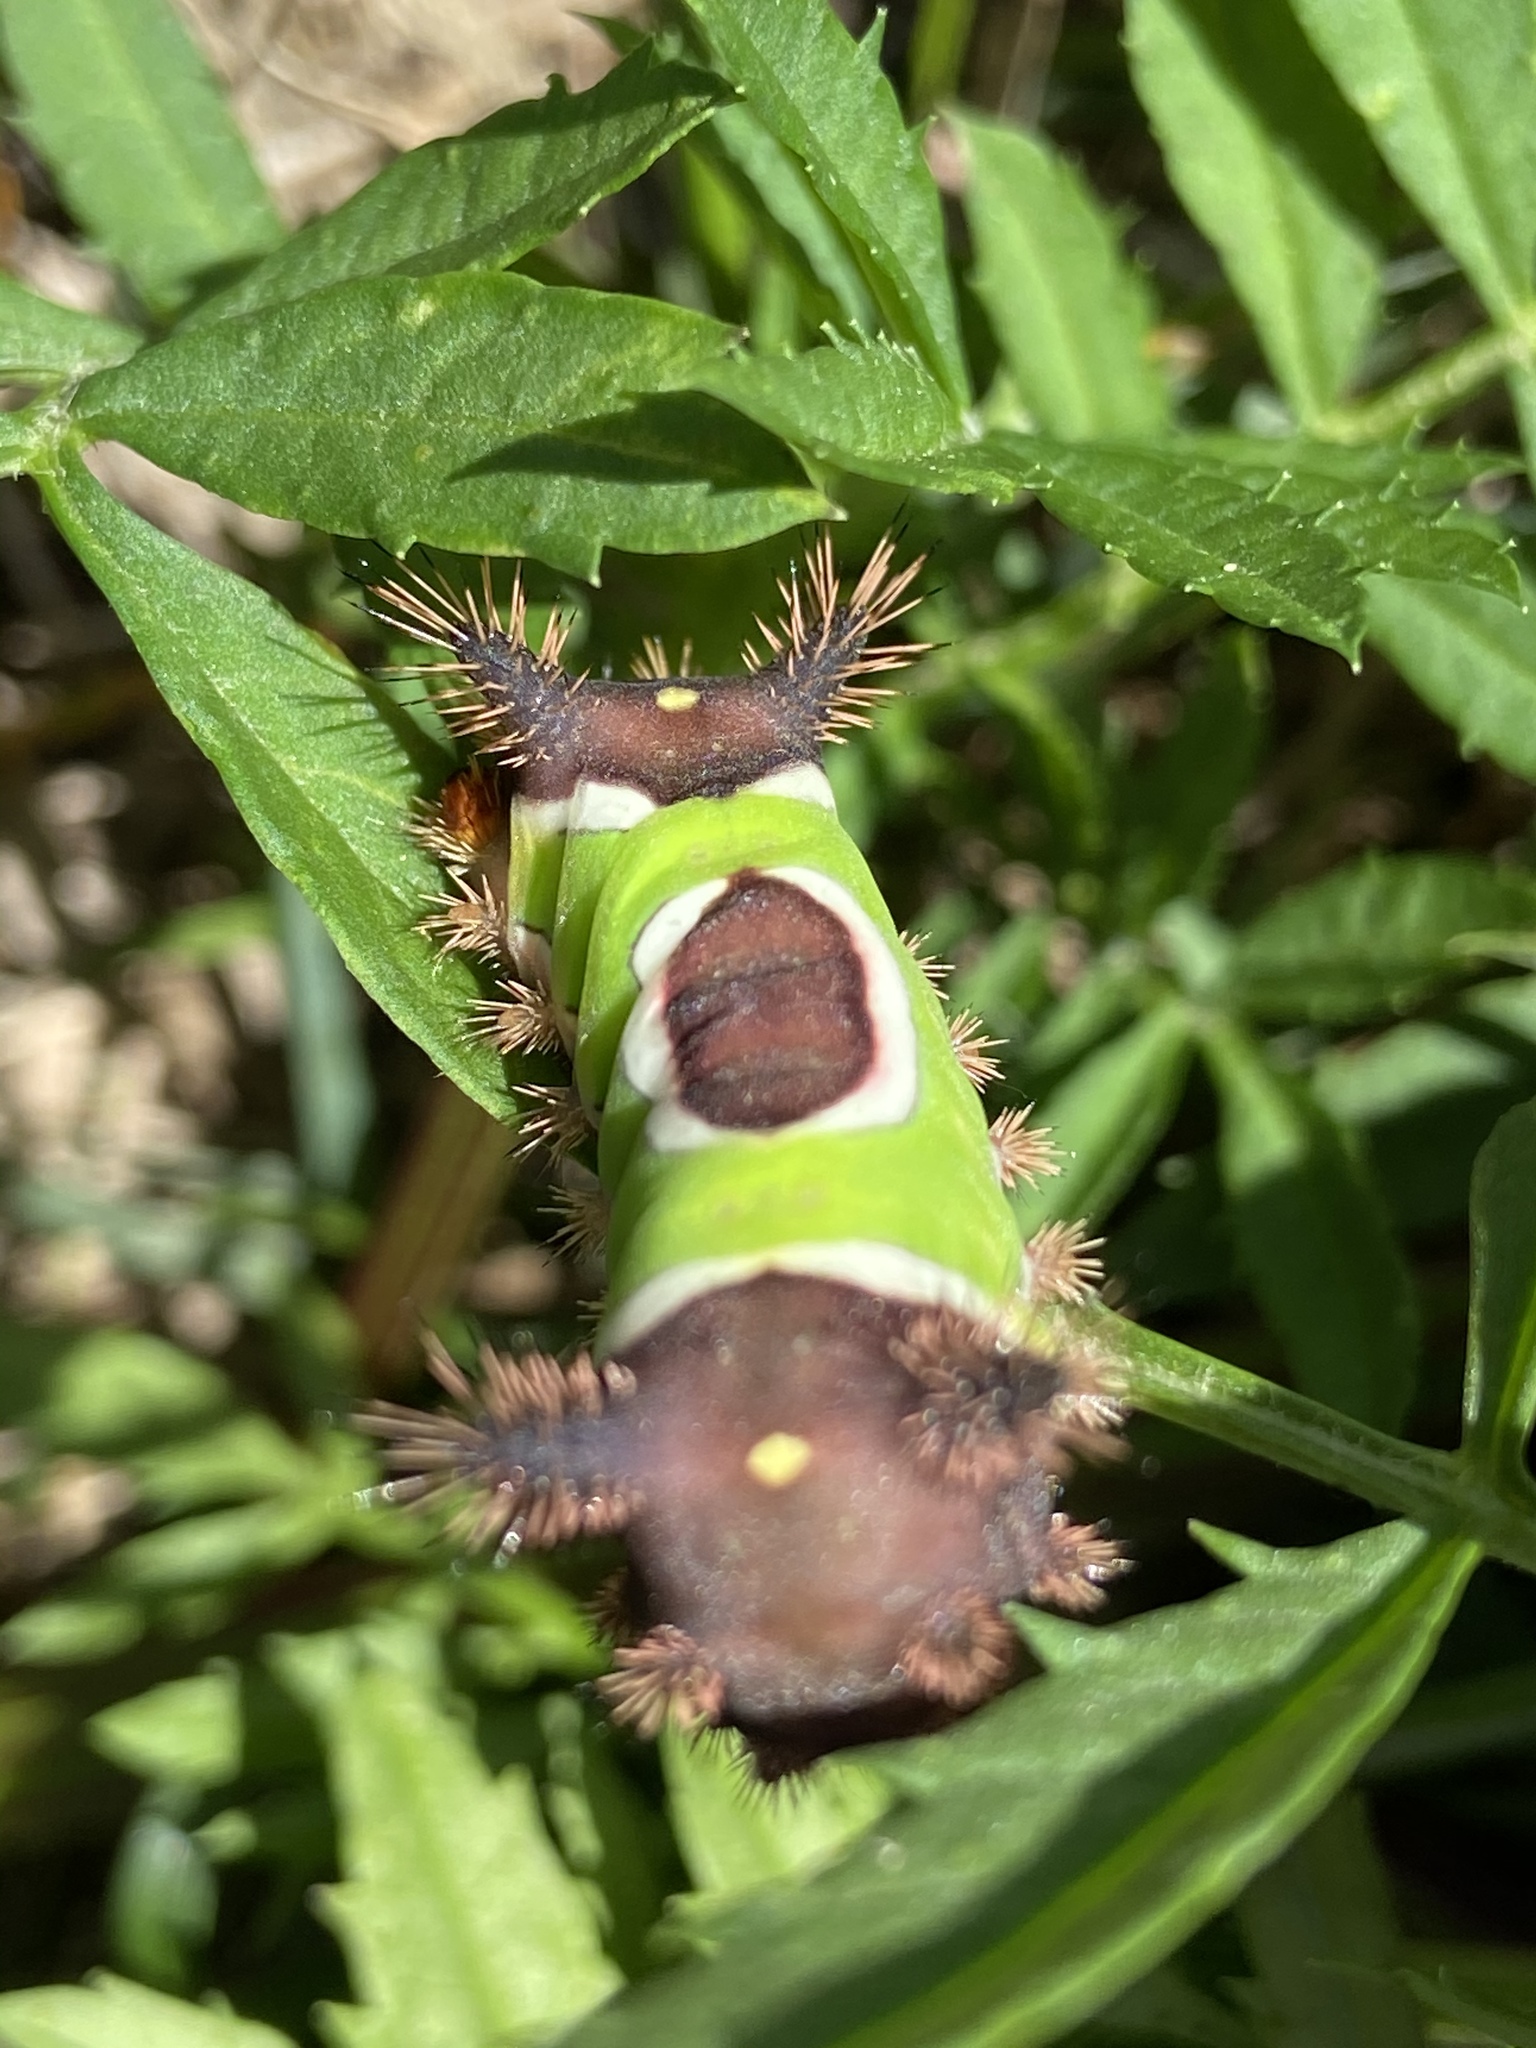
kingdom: Animalia
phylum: Arthropoda
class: Insecta
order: Lepidoptera
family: Limacodidae
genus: Acharia
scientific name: Acharia stimulea
